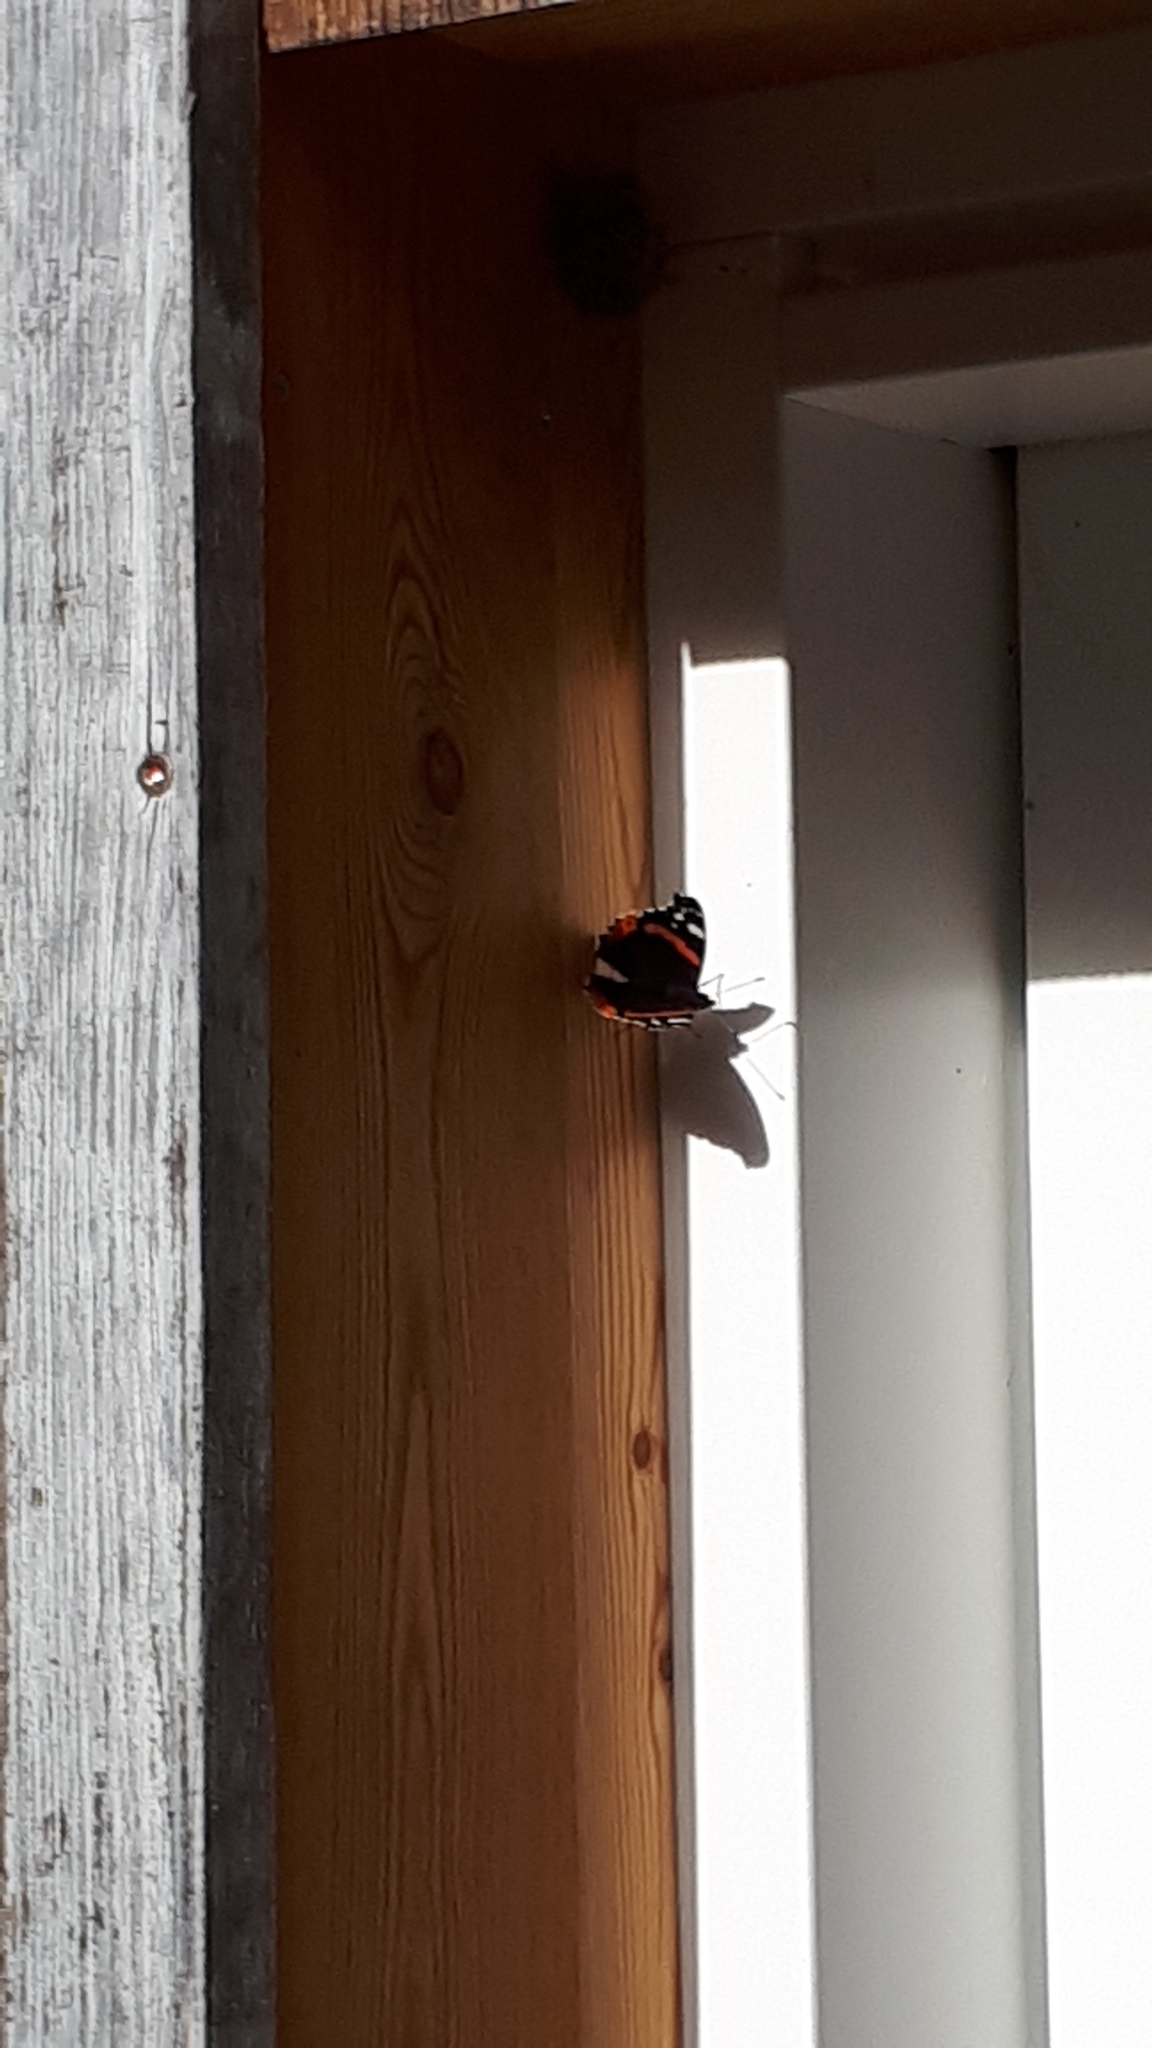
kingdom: Animalia
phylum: Arthropoda
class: Insecta
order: Lepidoptera
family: Nymphalidae
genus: Vanessa
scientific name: Vanessa atalanta
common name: Red admiral
